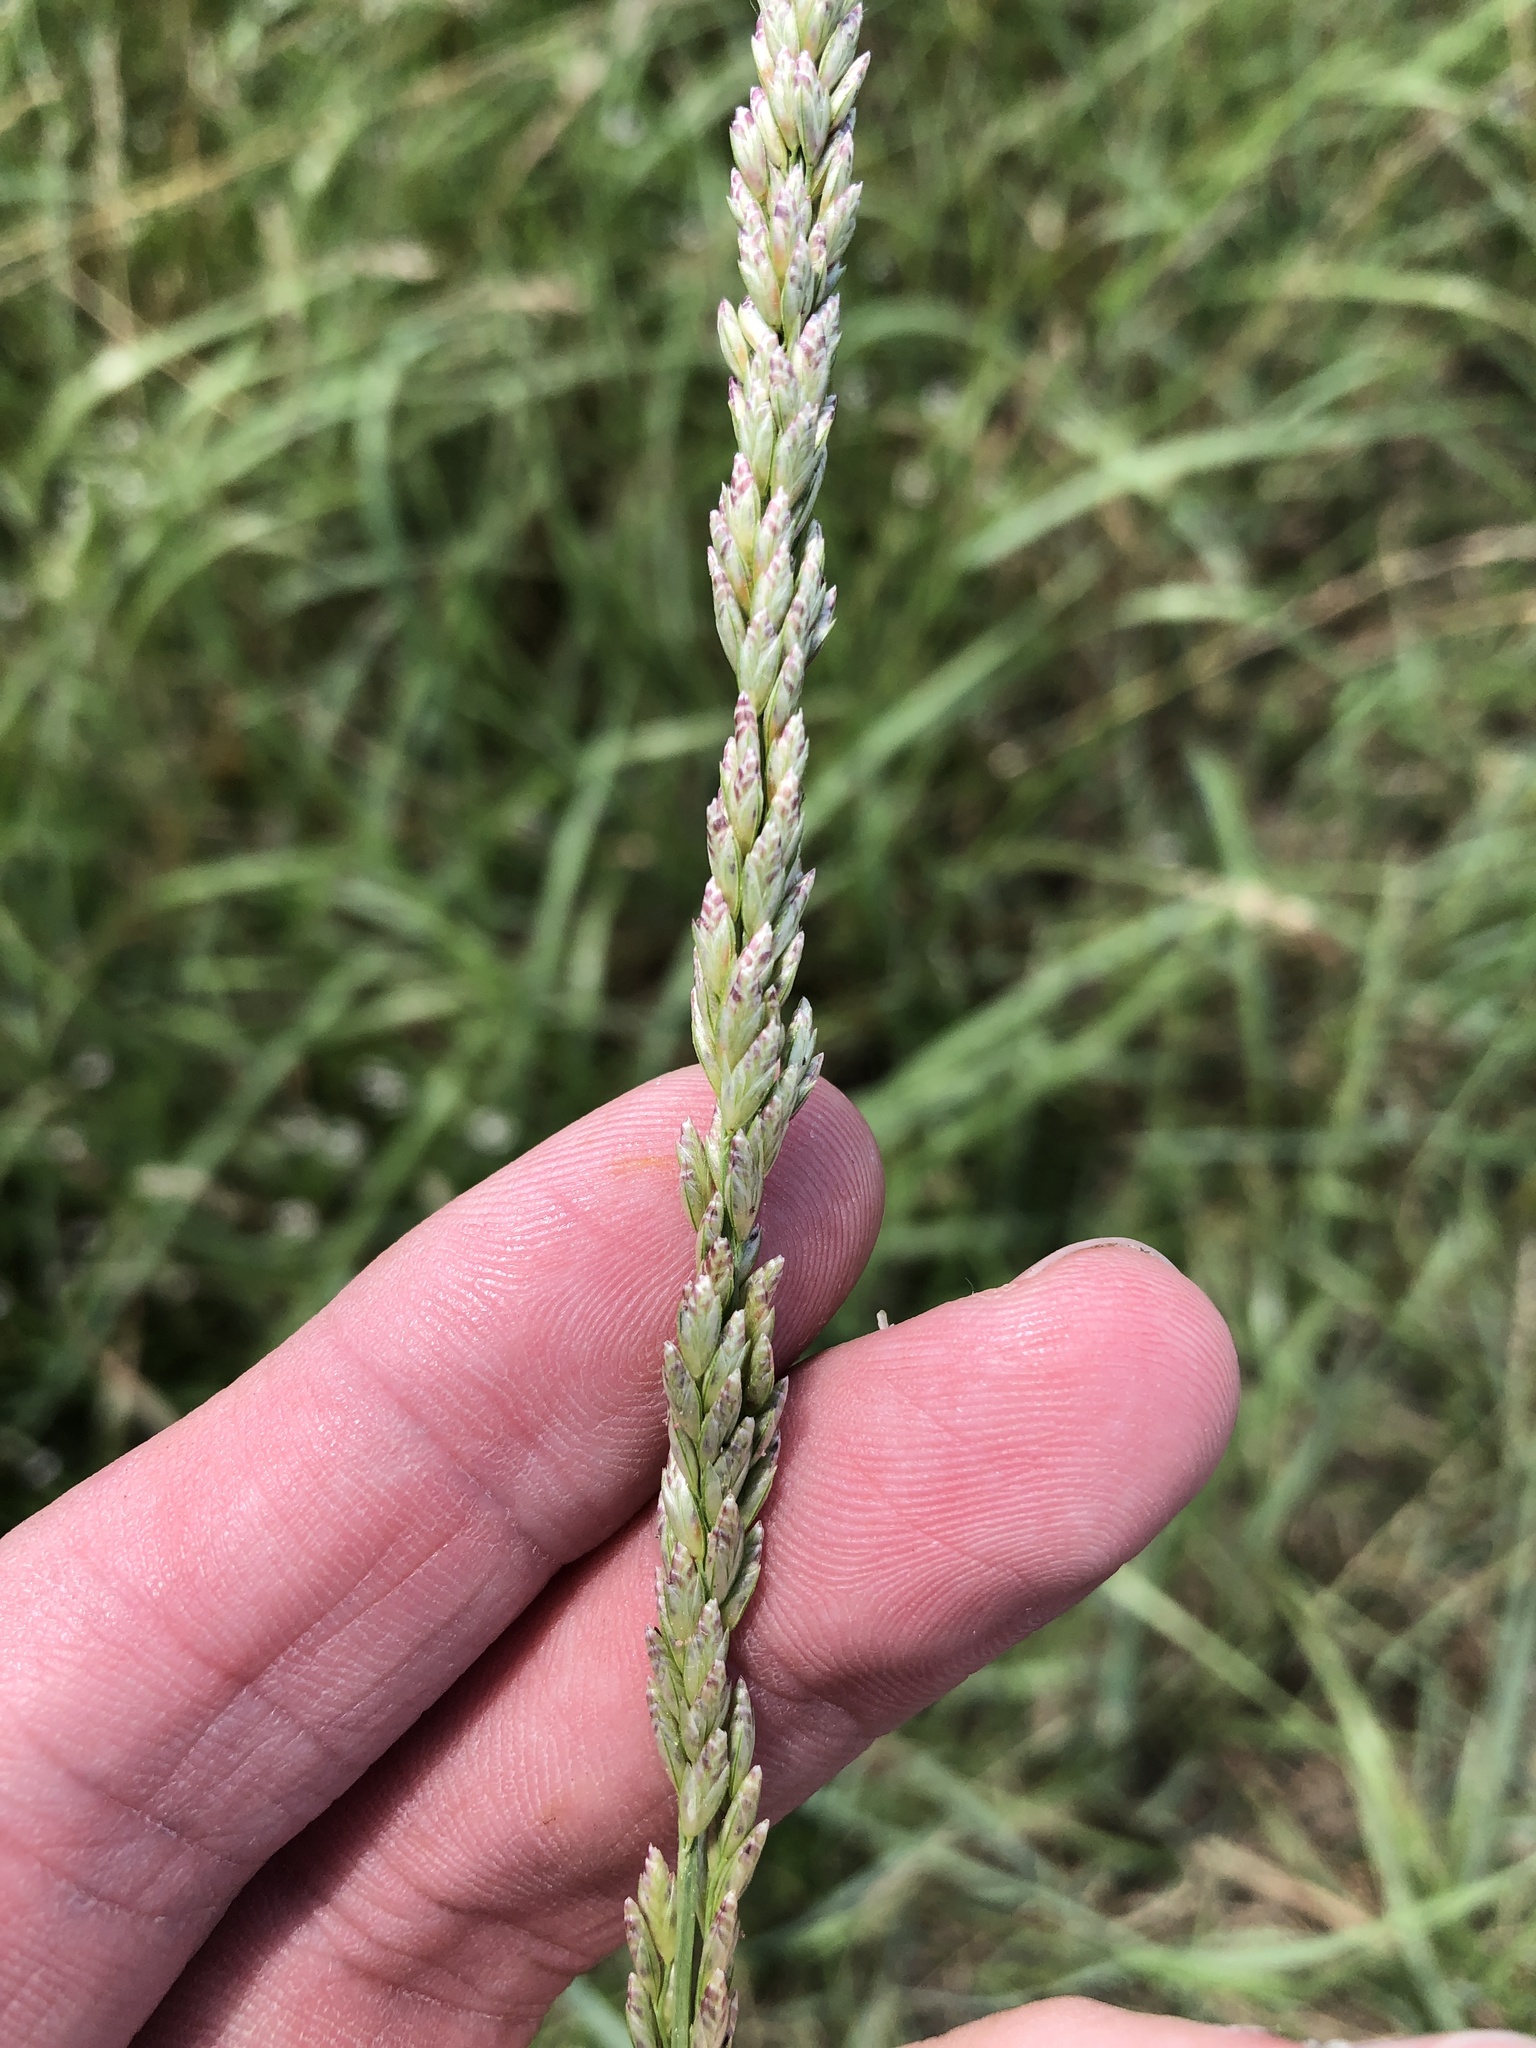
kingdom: Plantae
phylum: Tracheophyta
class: Liliopsida
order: Poales
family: Poaceae
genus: Tridens
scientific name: Tridens albescens
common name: White tridens
